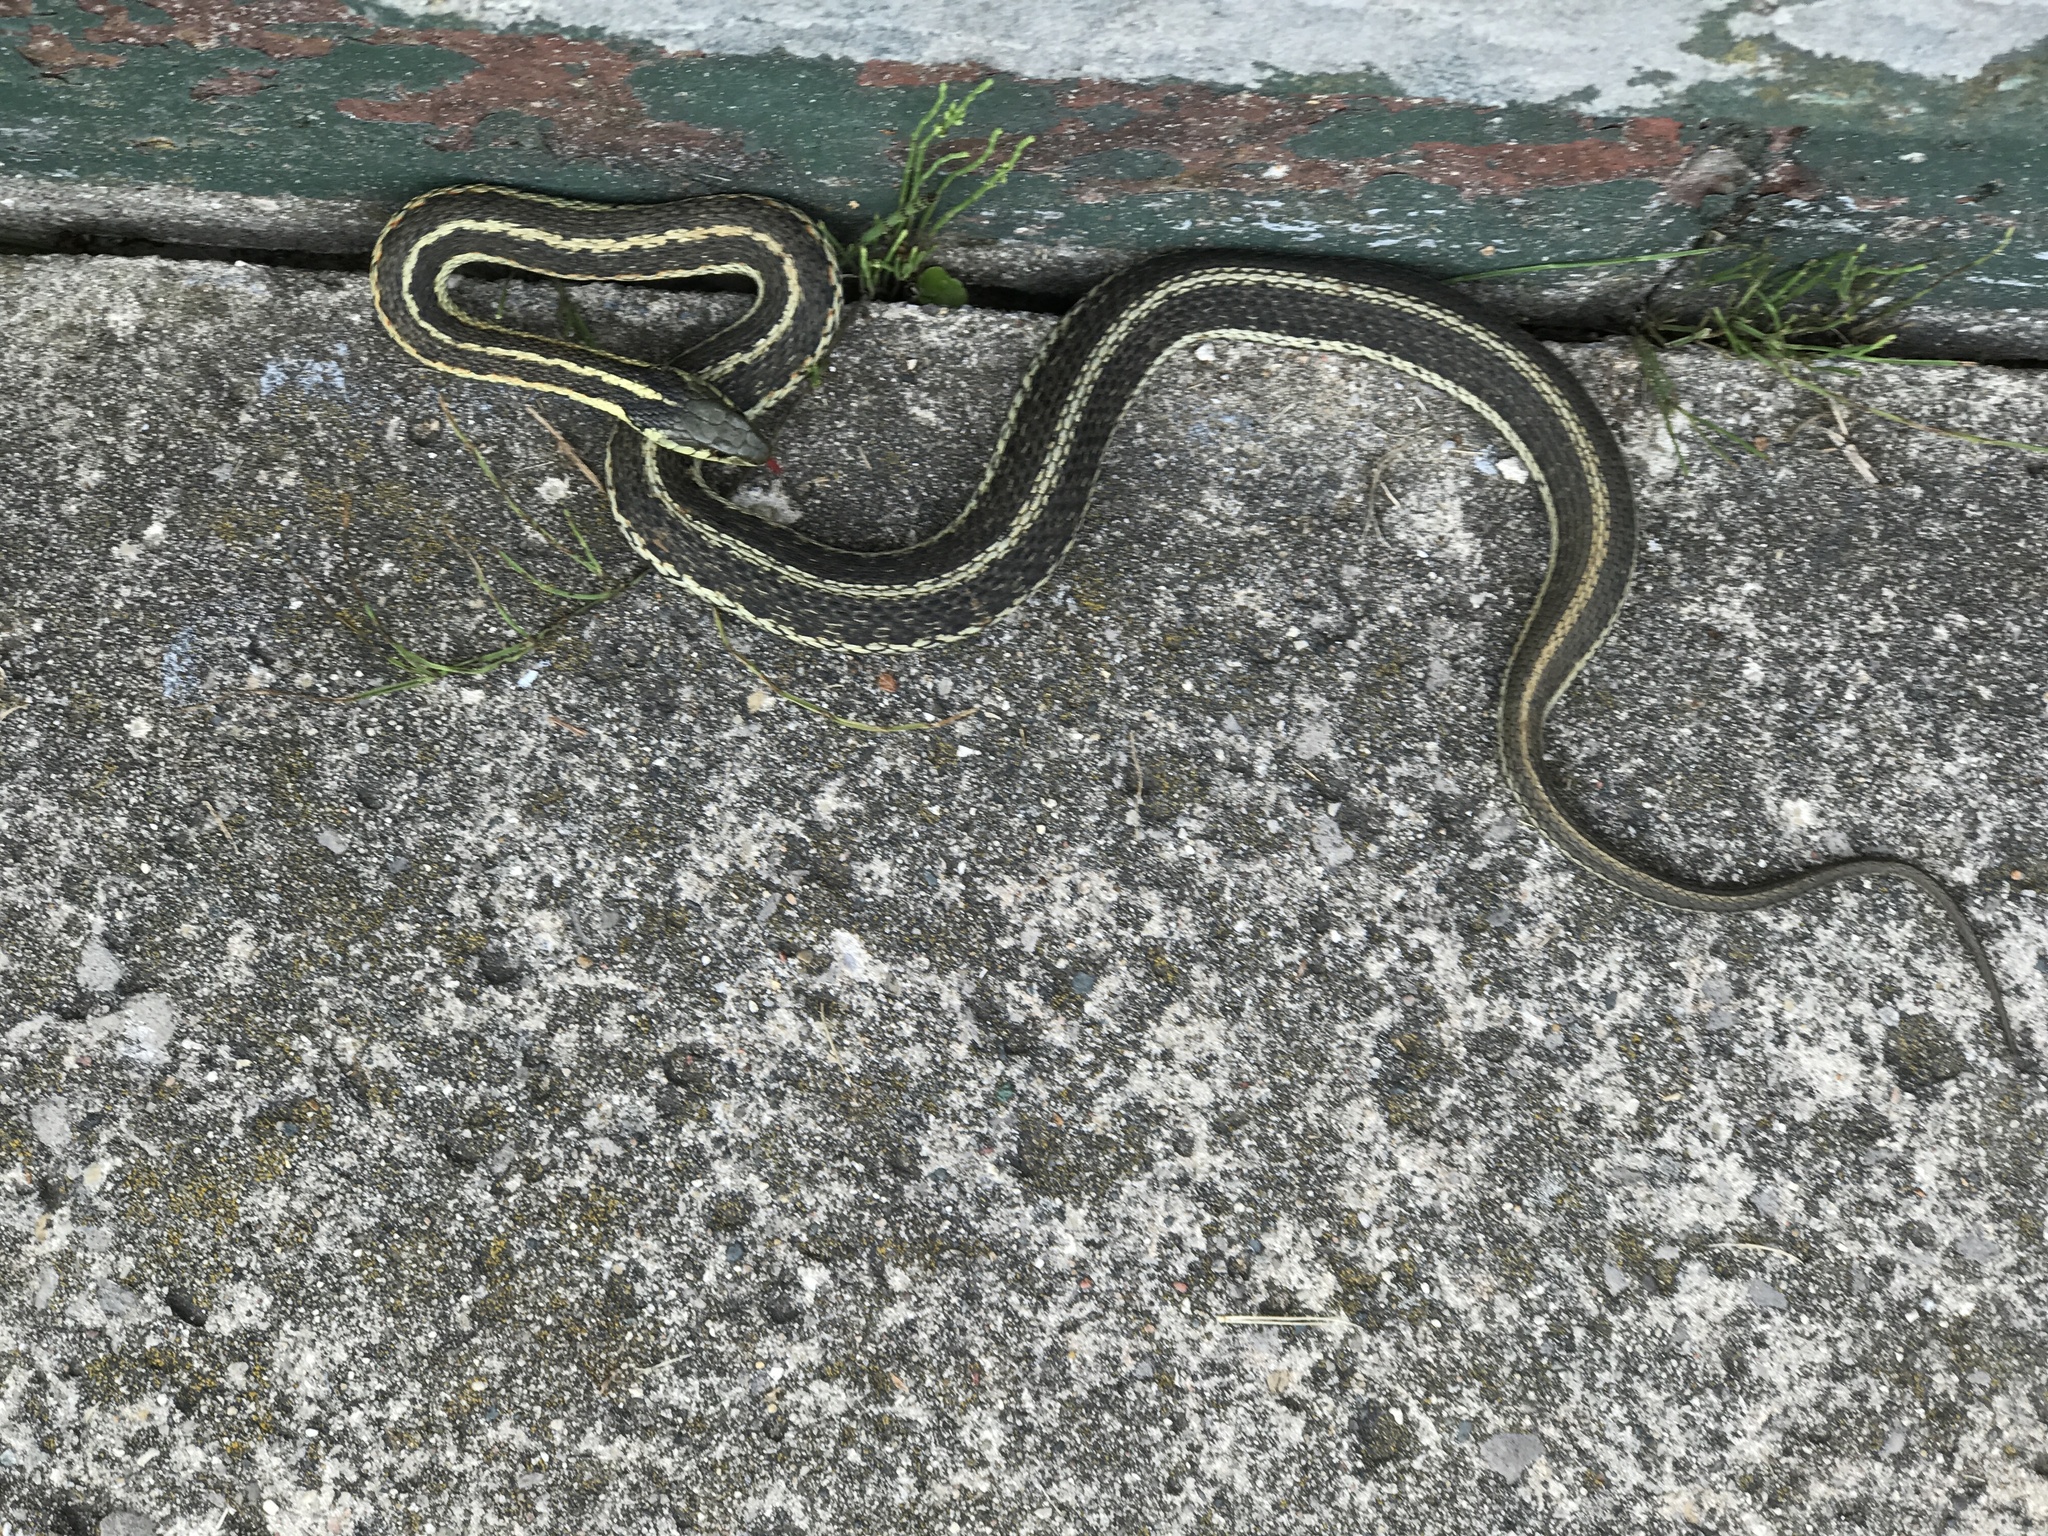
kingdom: Animalia
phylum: Chordata
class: Squamata
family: Colubridae
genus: Thamnophis
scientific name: Thamnophis sirtalis
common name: Common garter snake
